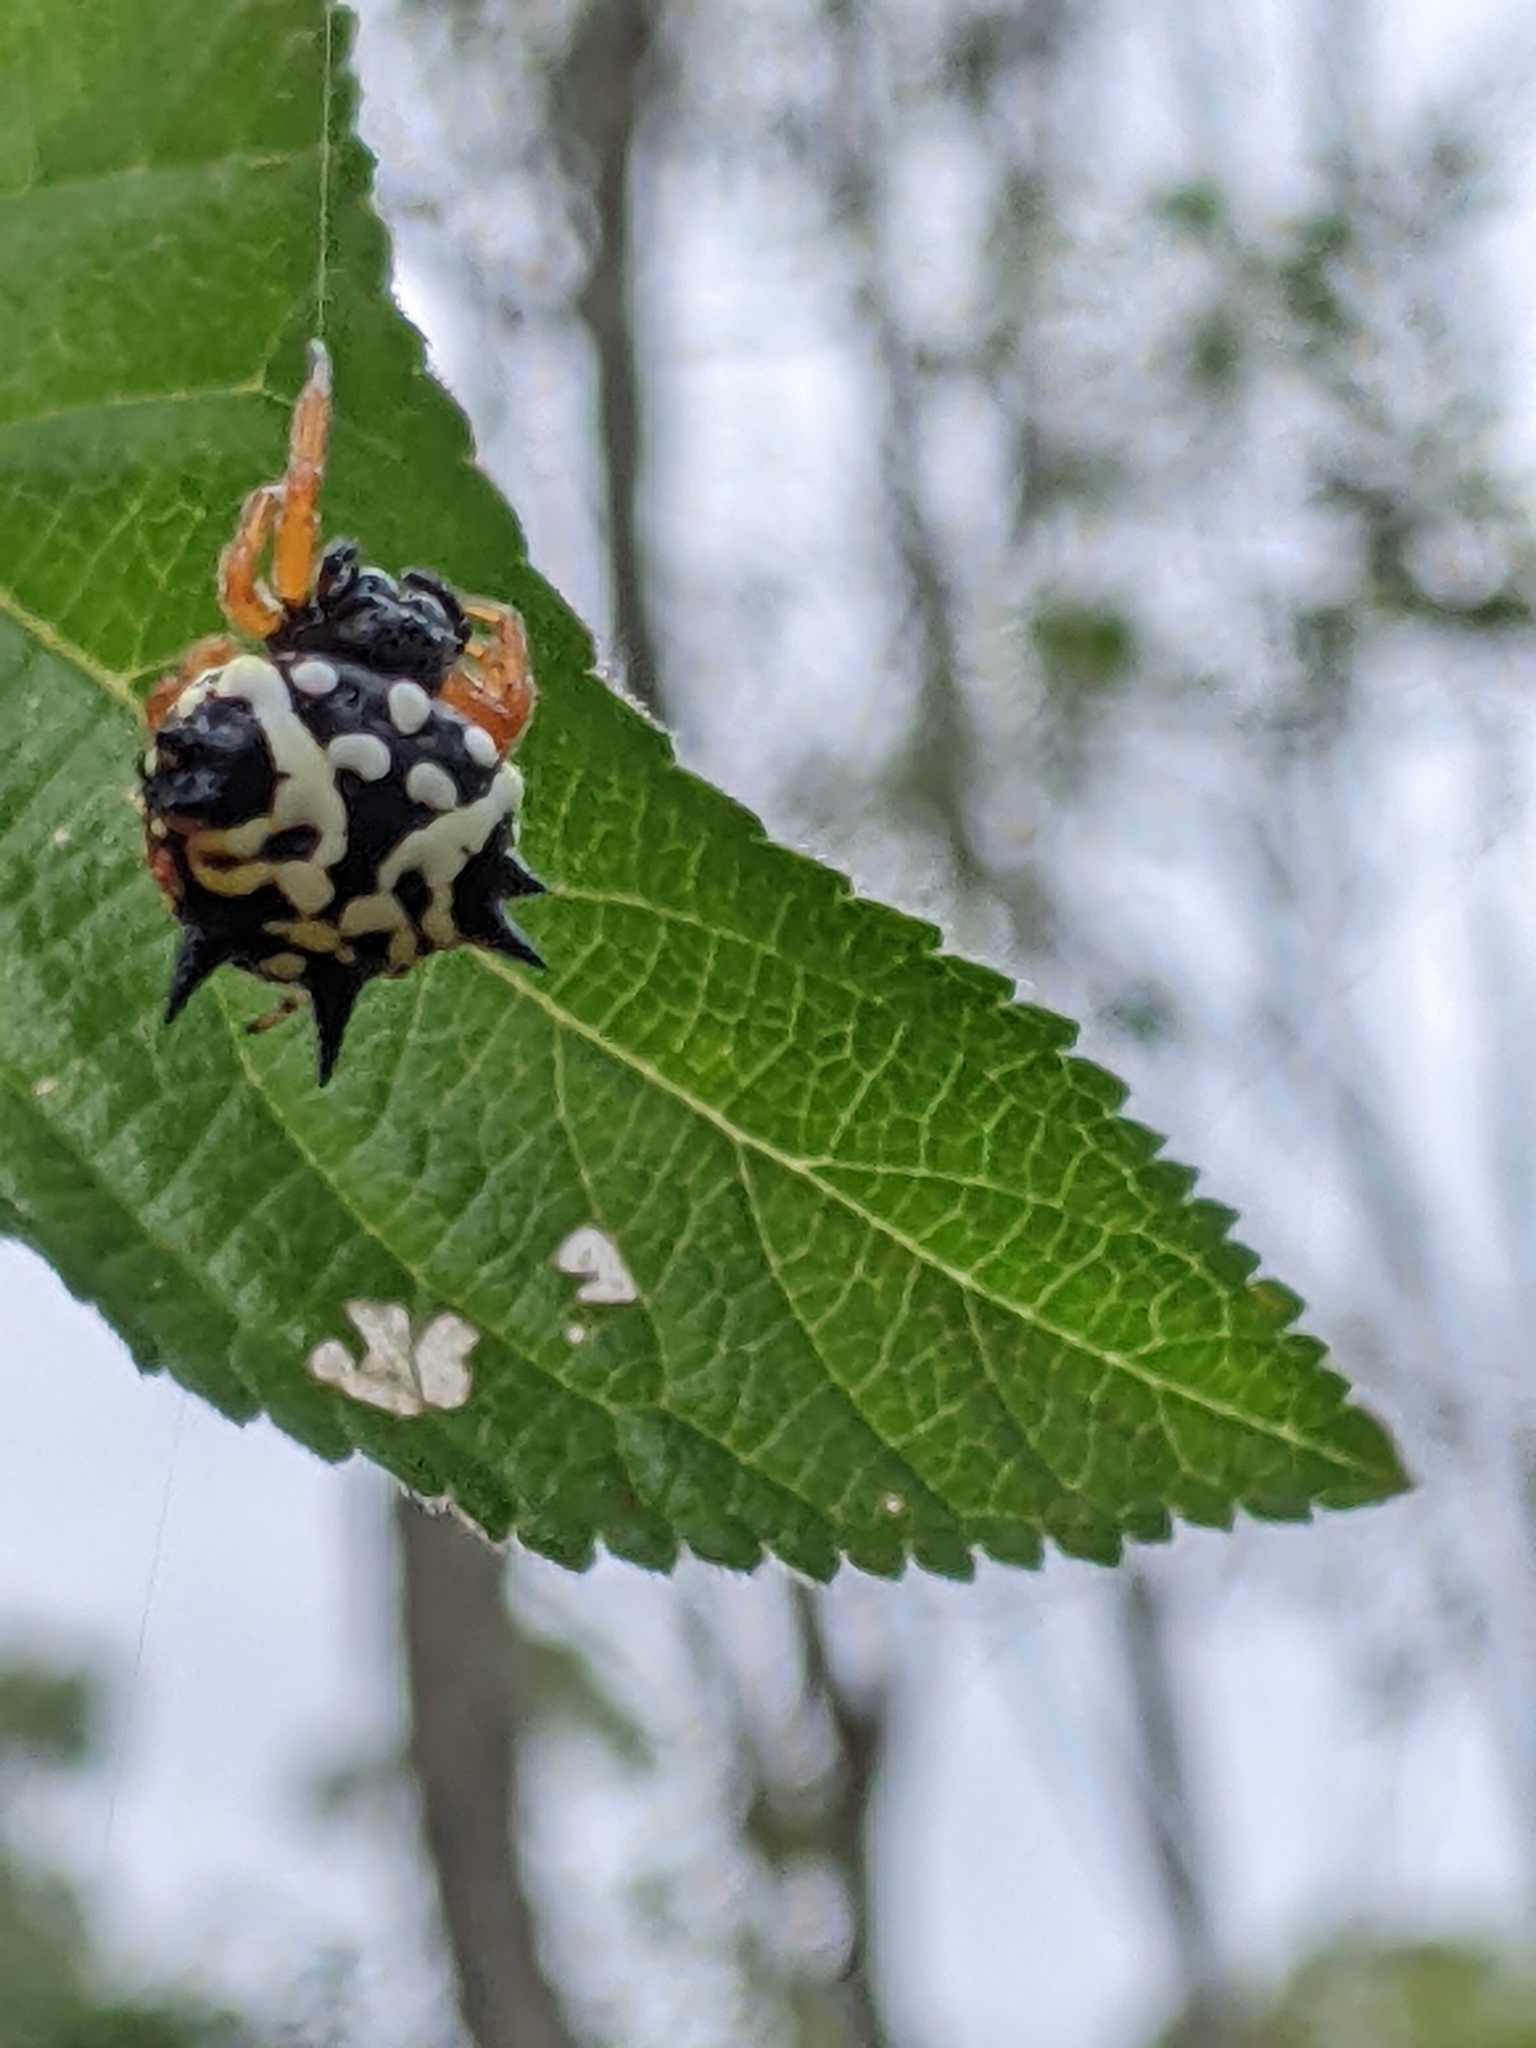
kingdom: Animalia
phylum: Arthropoda
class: Arachnida
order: Araneae
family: Araneidae
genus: Austracantha
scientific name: Austracantha minax
